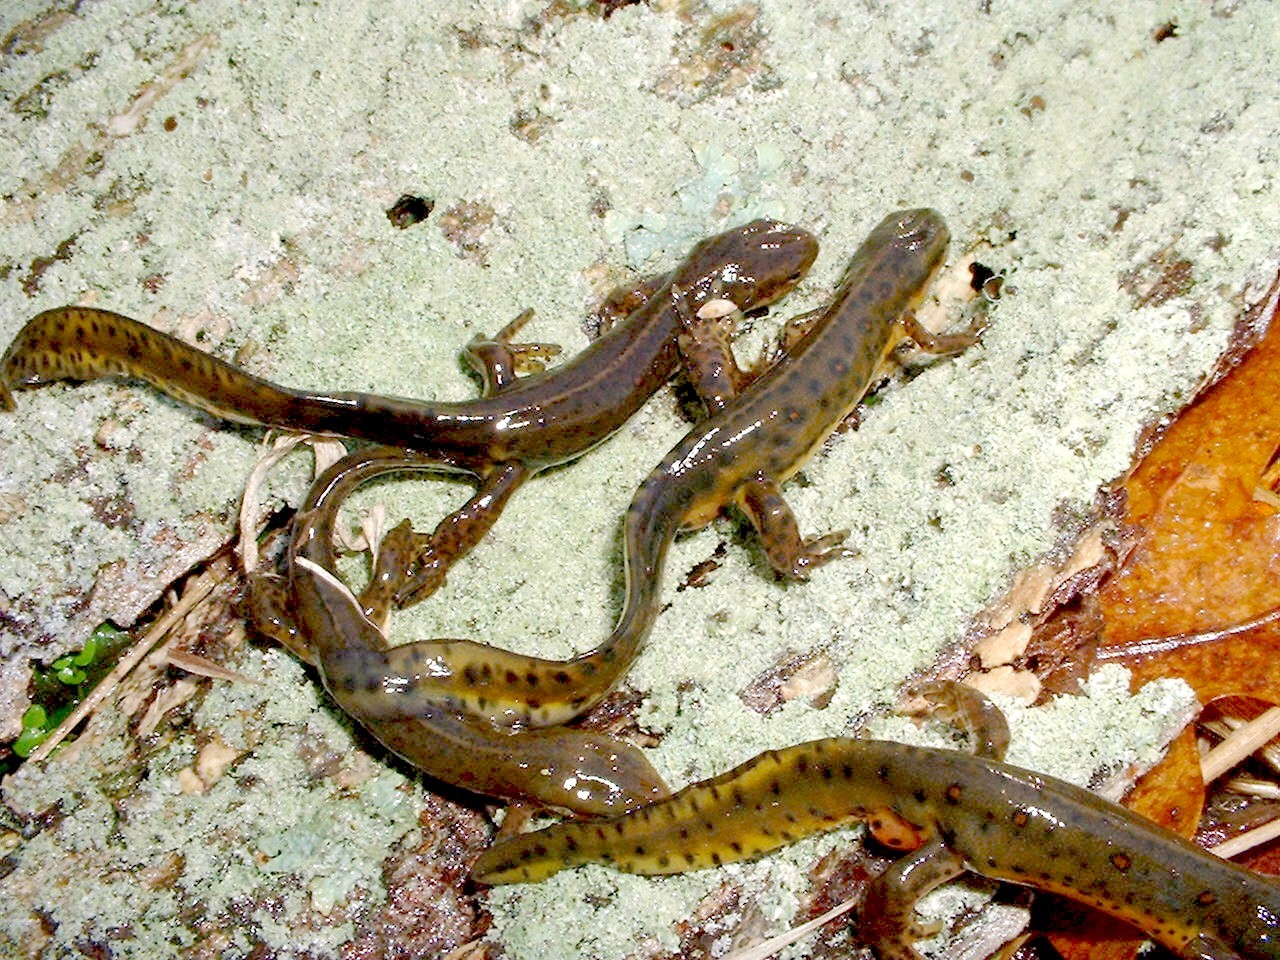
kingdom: Animalia
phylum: Chordata
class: Amphibia
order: Caudata
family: Salamandridae
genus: Notophthalmus
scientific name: Notophthalmus viridescens
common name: Eastern newt
